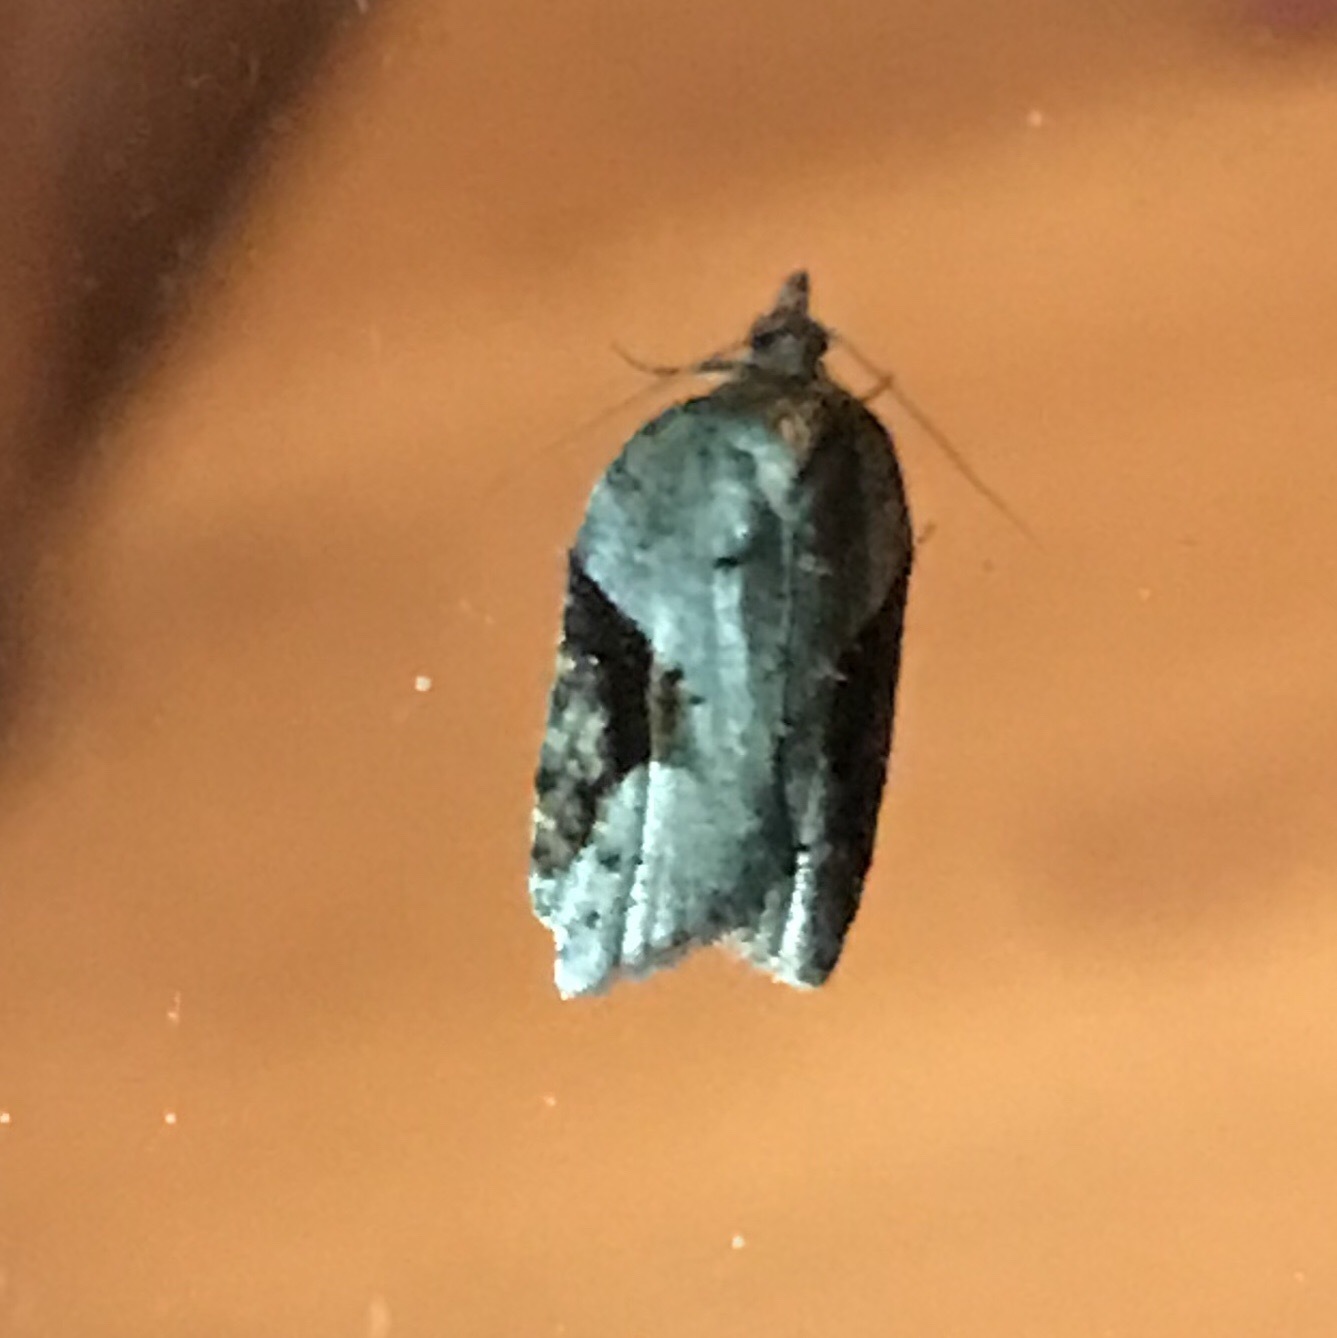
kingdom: Animalia
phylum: Arthropoda
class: Insecta
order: Lepidoptera
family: Tortricidae
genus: Acleris
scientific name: Acleris macdunnoughi
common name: Macdunnough's acleris
